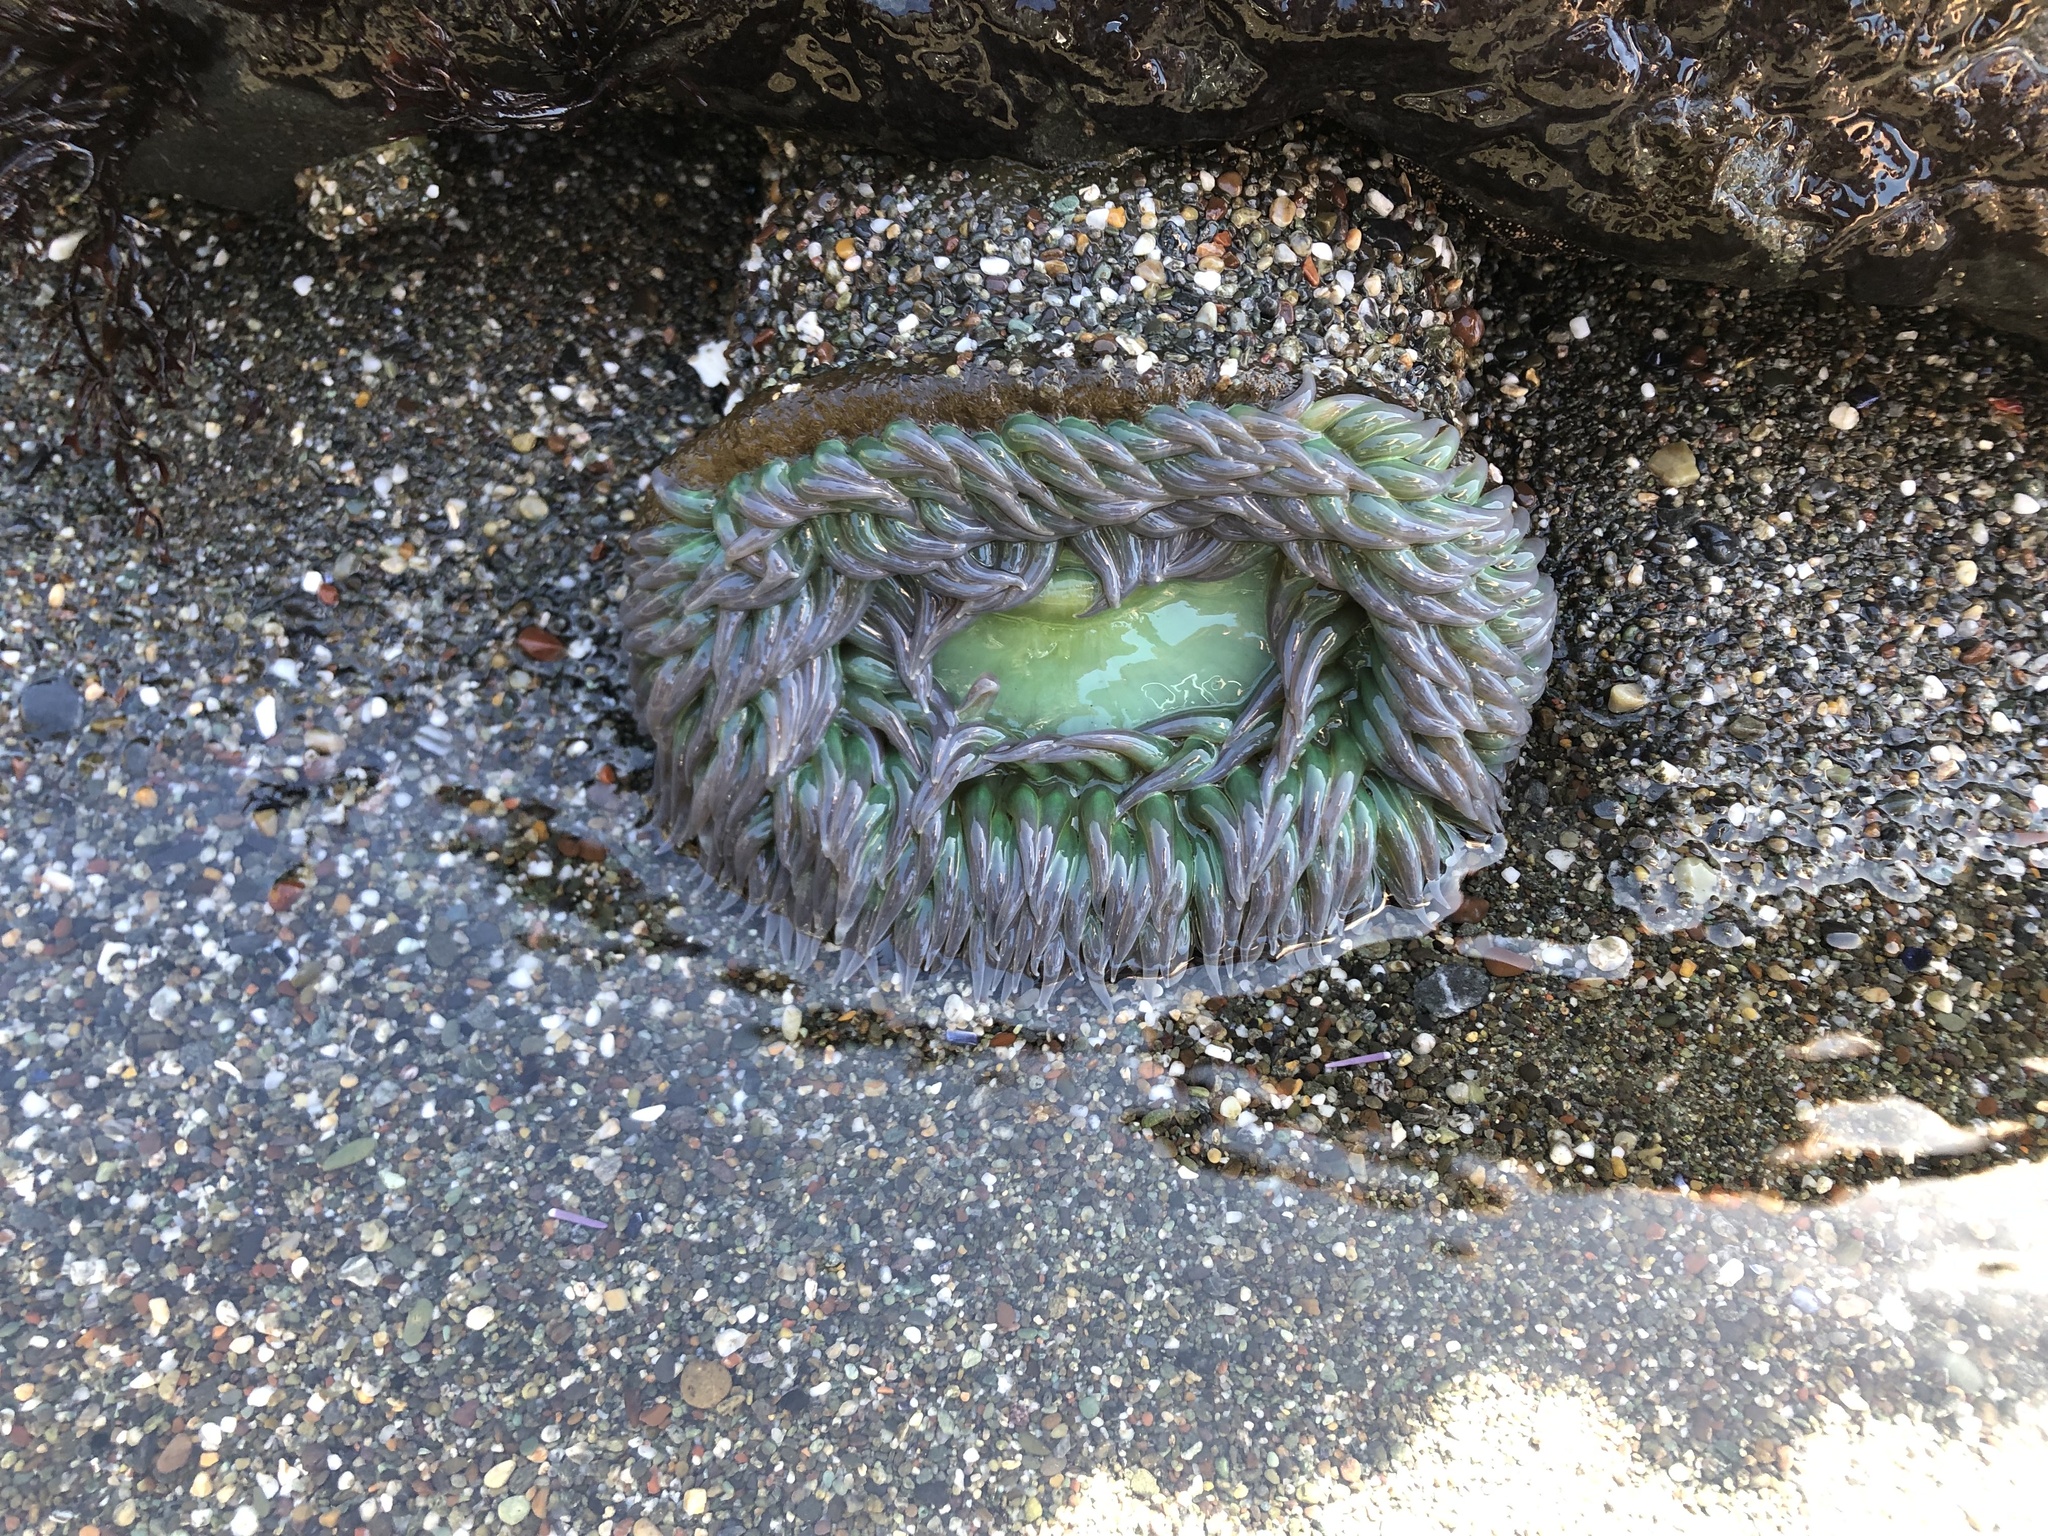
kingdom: Animalia
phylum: Cnidaria
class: Anthozoa
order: Actiniaria
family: Actiniidae
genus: Anthopleura
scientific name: Anthopleura xanthogrammica
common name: Giant green anemone
